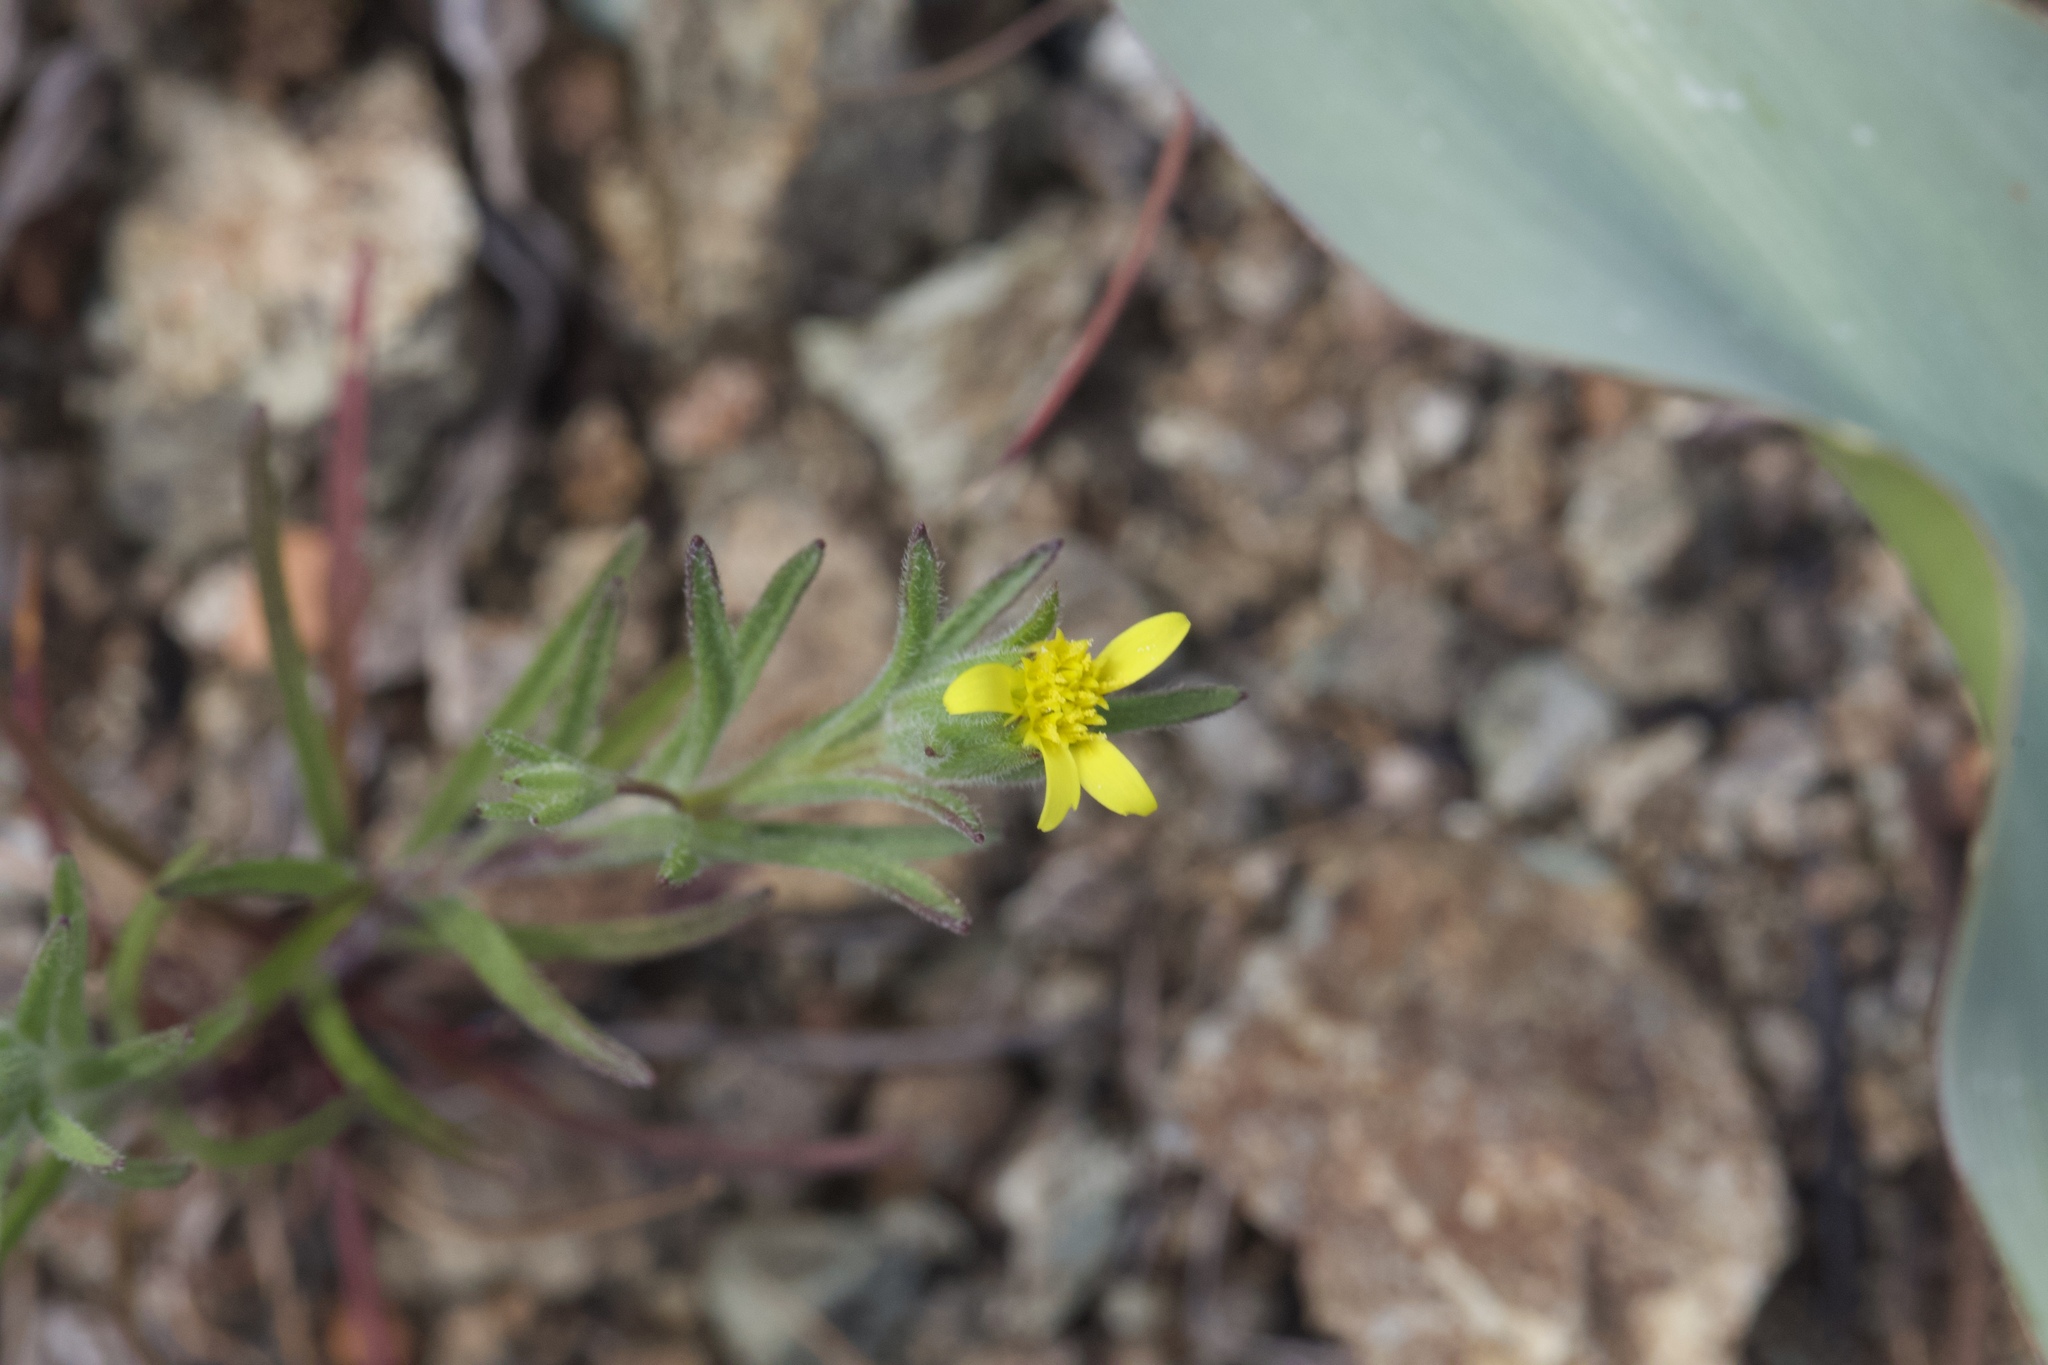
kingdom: Plantae
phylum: Tracheophyta
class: Magnoliopsida
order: Asterales
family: Asteraceae
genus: Rigiopappus
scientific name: Rigiopappus leptocladus
